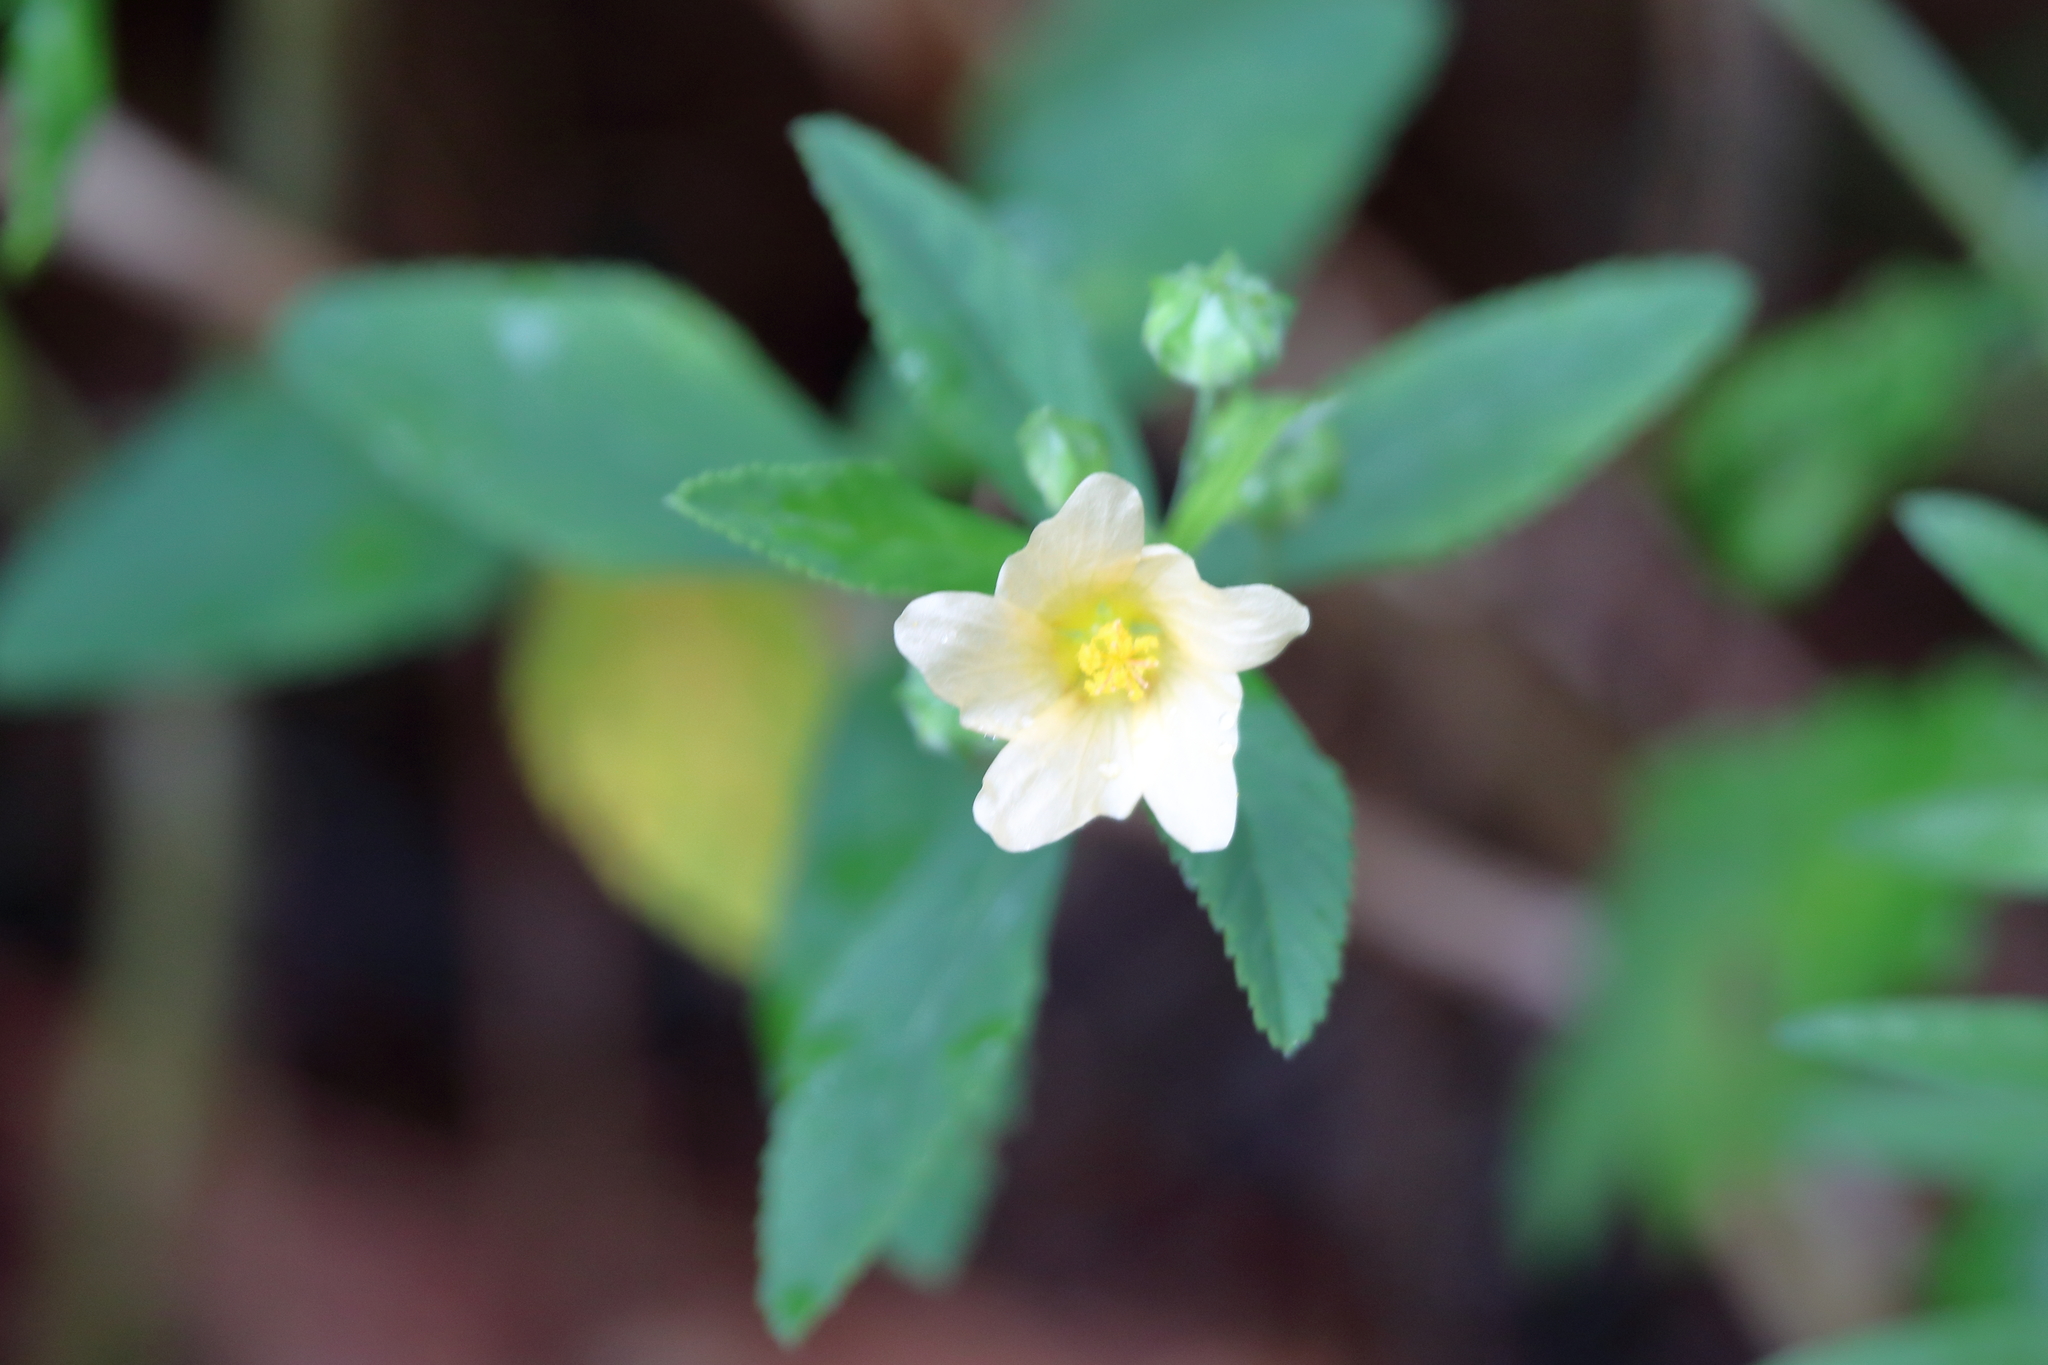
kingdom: Plantae
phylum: Tracheophyta
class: Magnoliopsida
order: Malvales
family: Malvaceae
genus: Sida
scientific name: Sida rhombifolia
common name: Queensland-hemp
